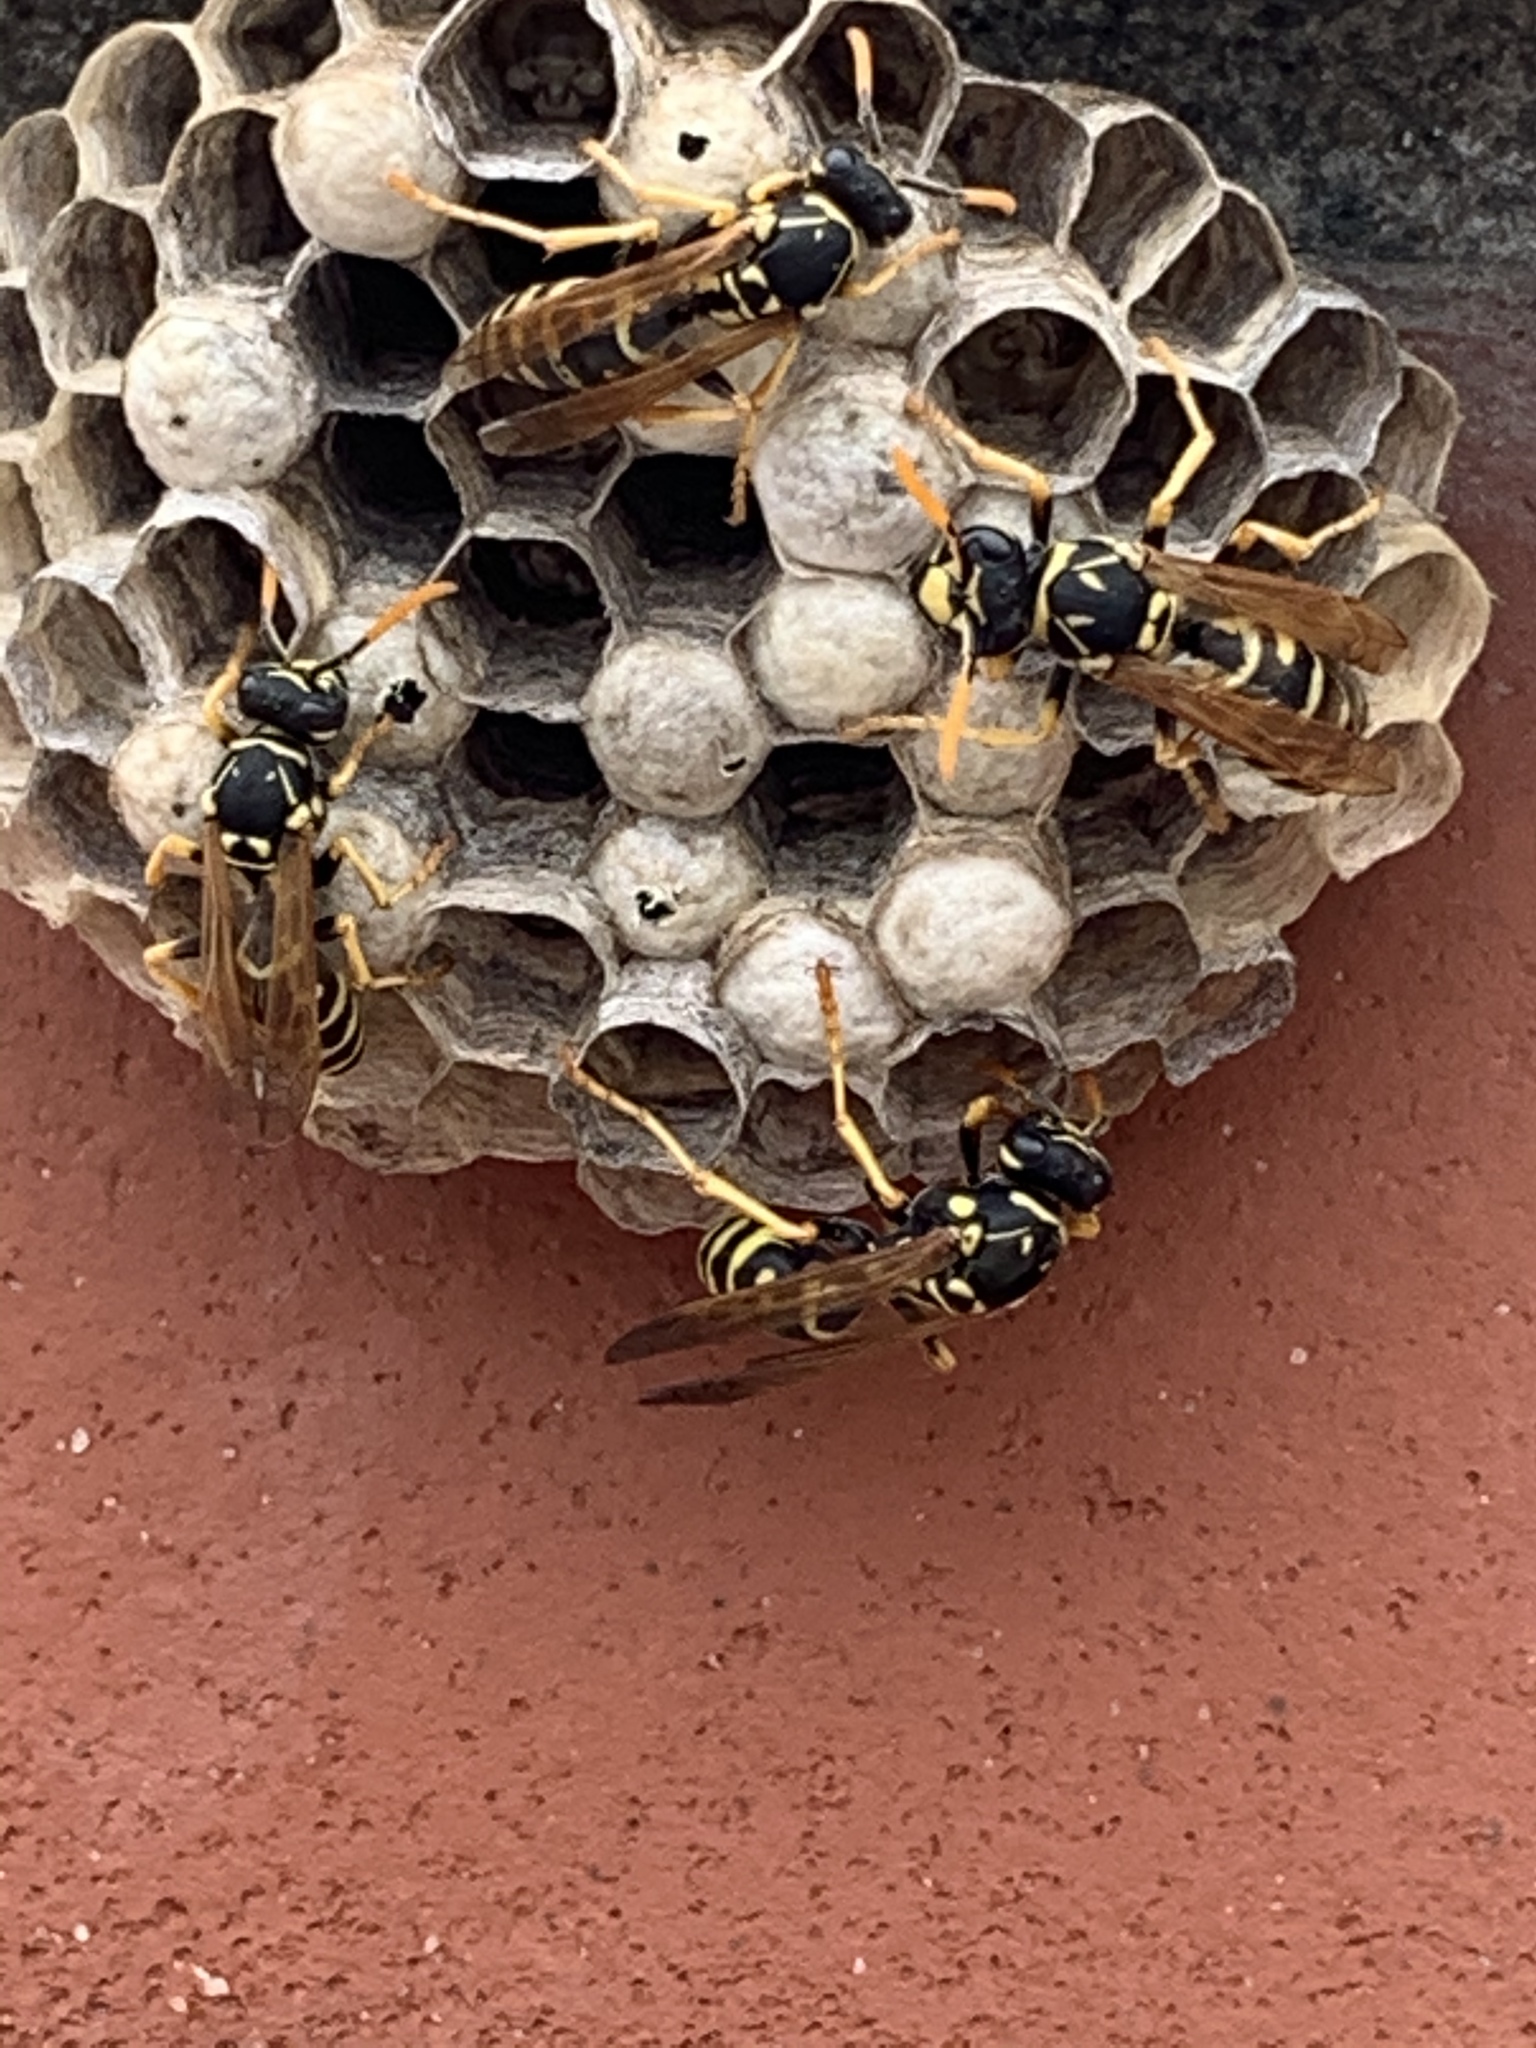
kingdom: Animalia
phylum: Arthropoda
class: Insecta
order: Hymenoptera
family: Eumenidae
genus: Polistes
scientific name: Polistes dominula
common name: Paper wasp
